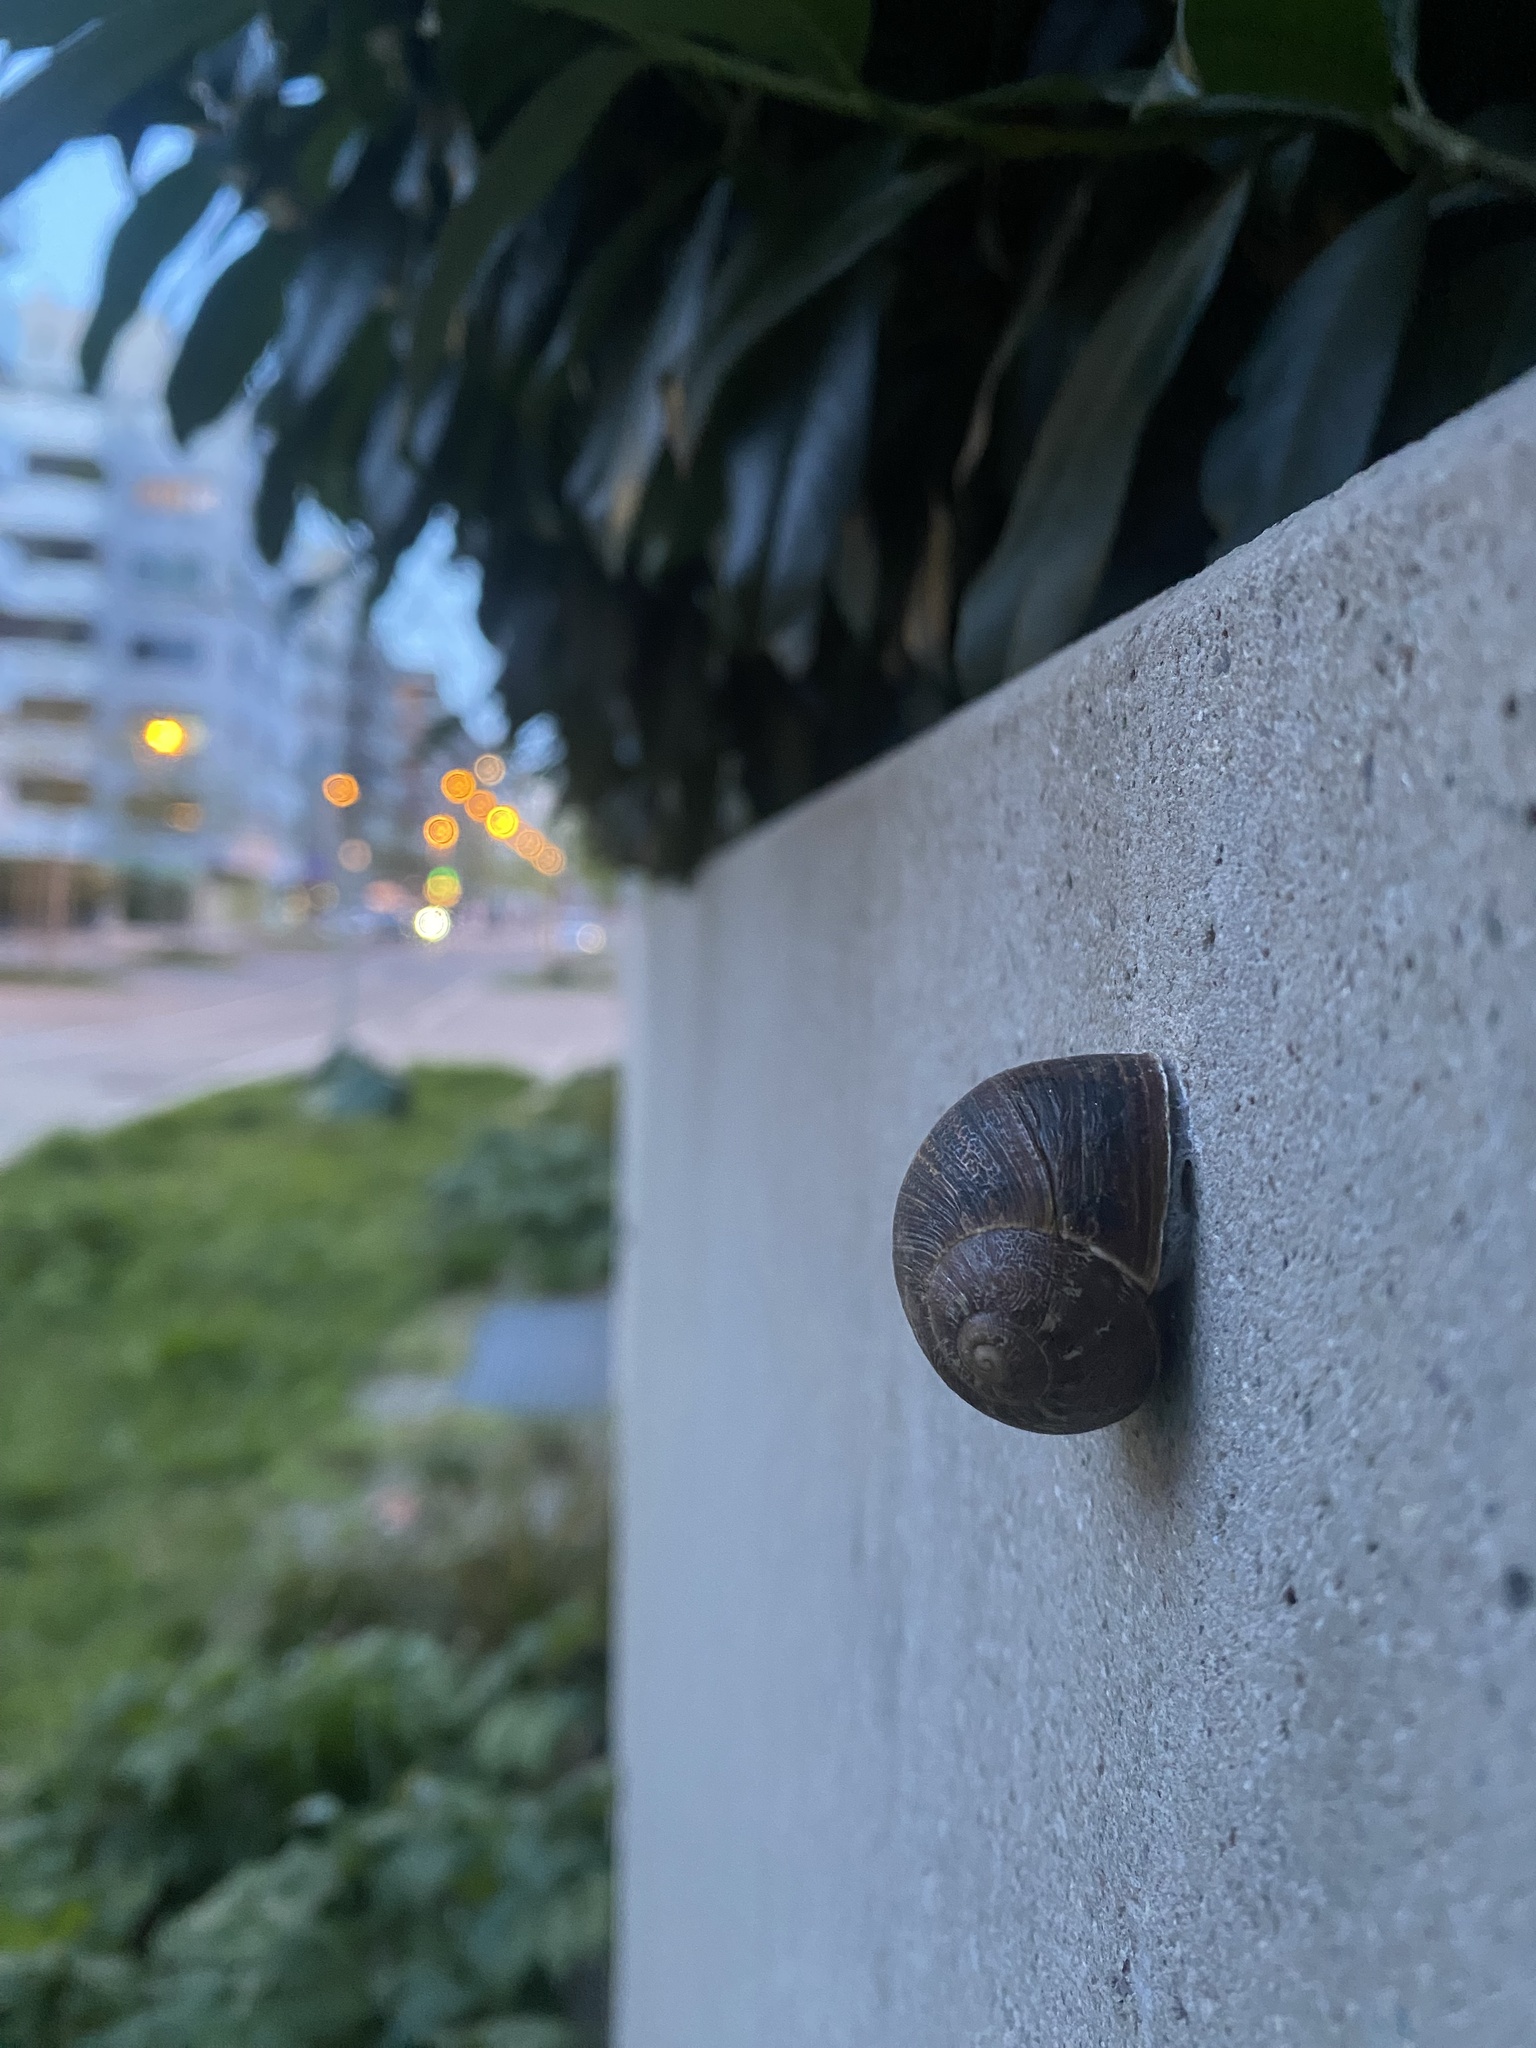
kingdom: Animalia
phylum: Mollusca
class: Gastropoda
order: Stylommatophora
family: Helicidae
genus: Cornu
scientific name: Cornu aspersum
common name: Brown garden snail
